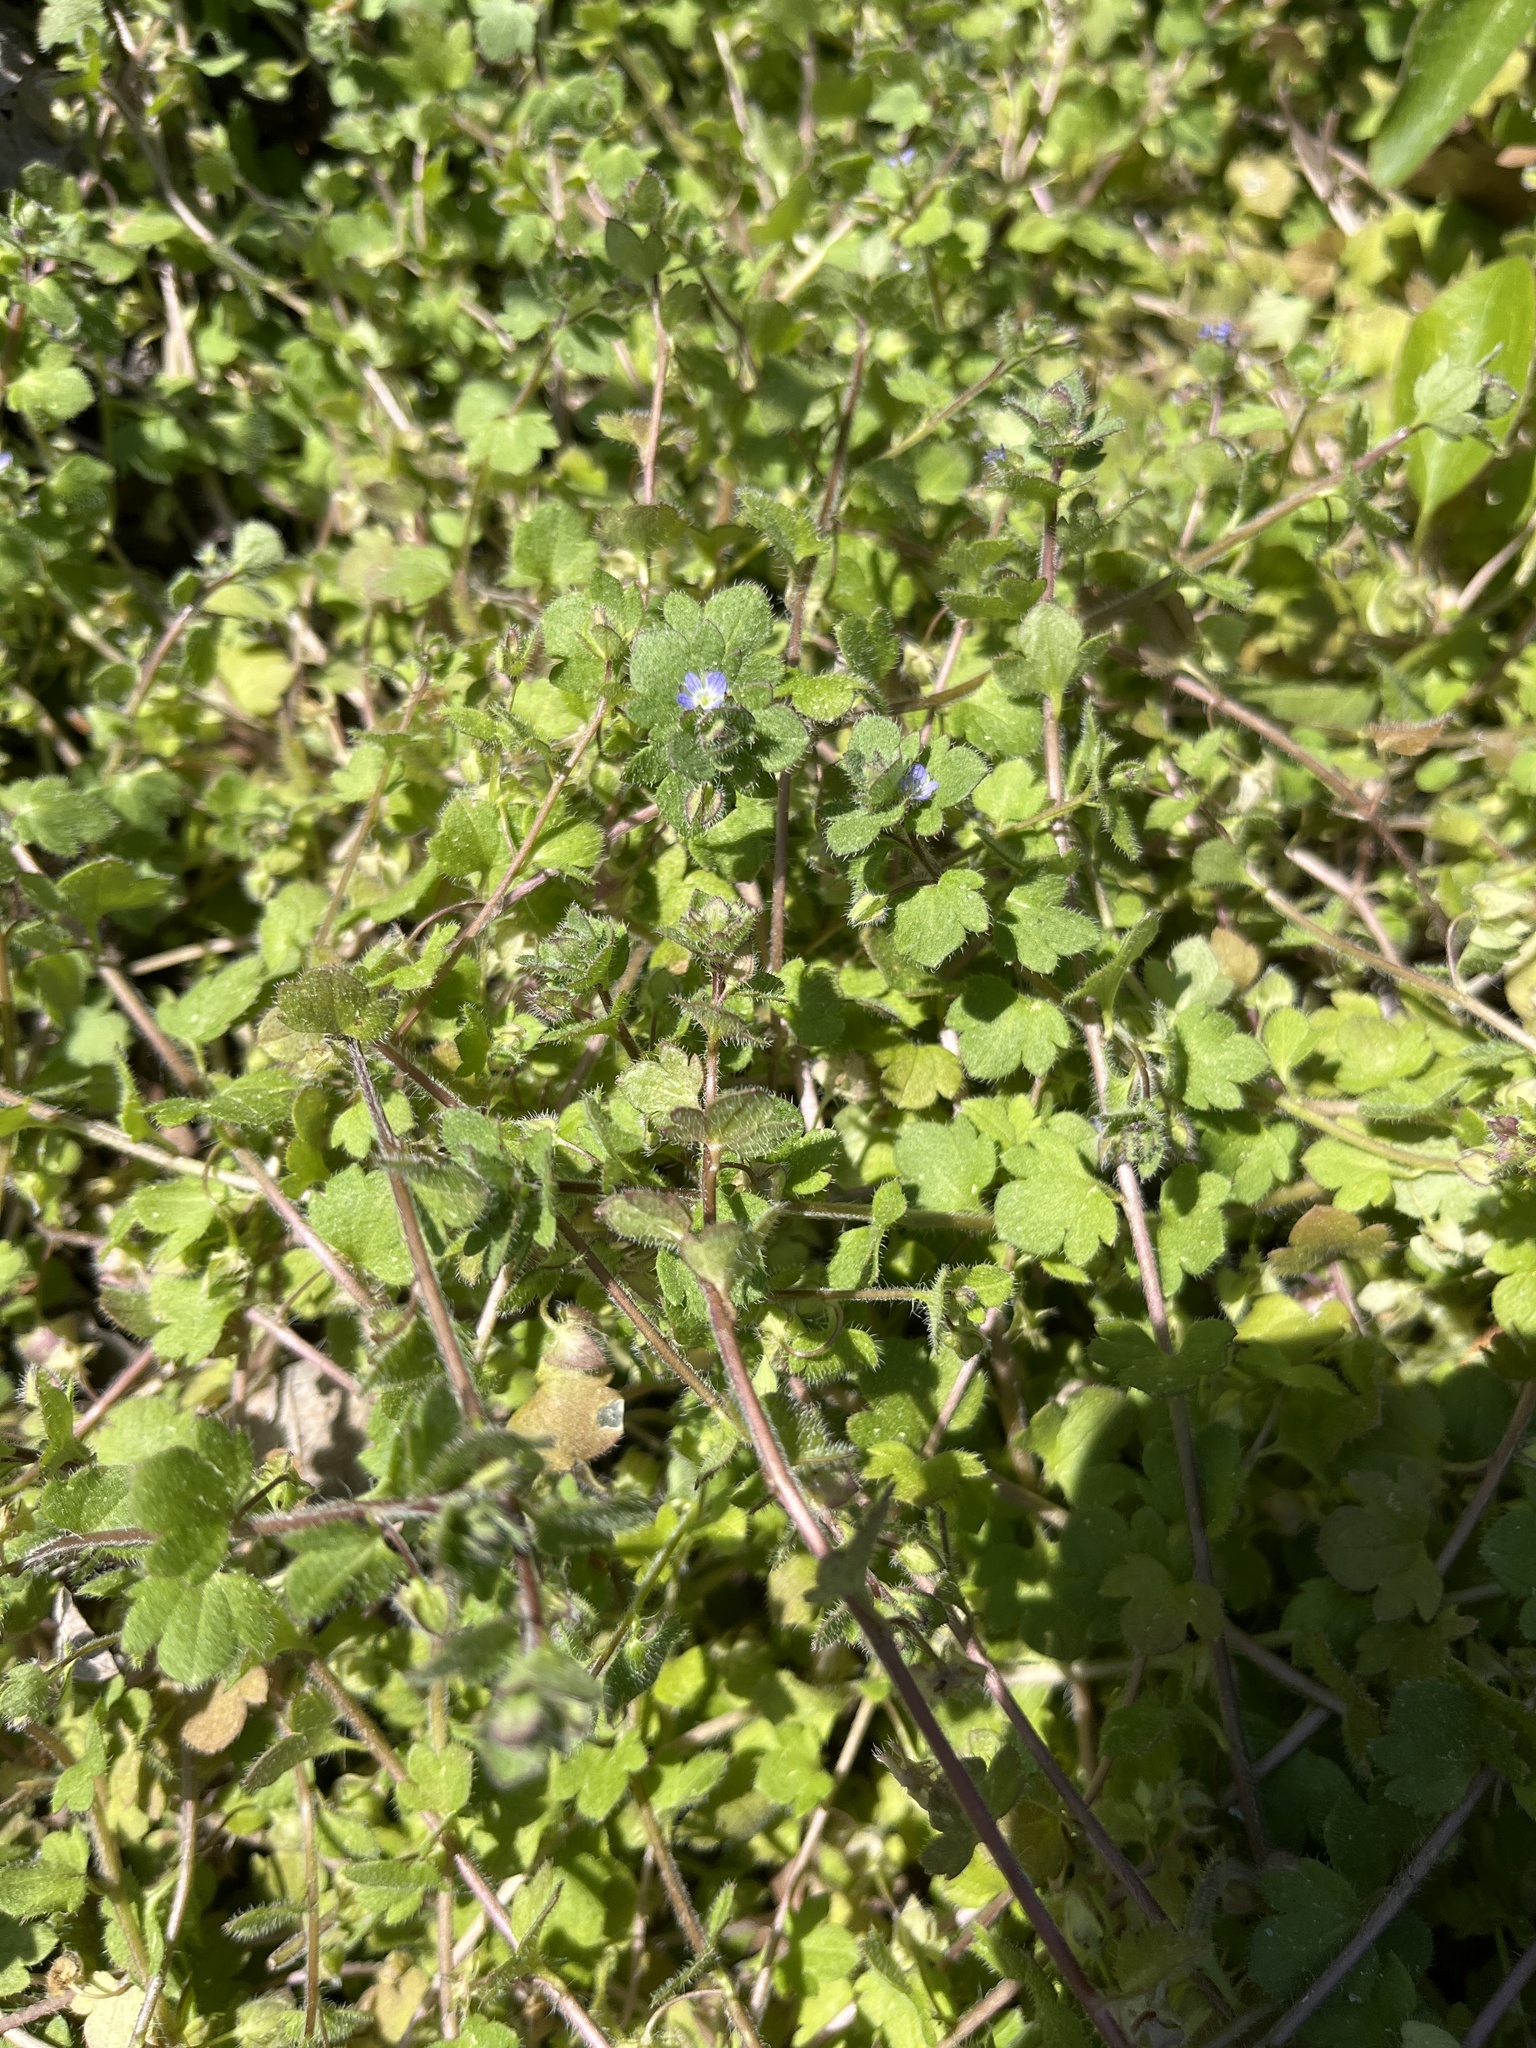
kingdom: Plantae
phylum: Tracheophyta
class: Magnoliopsida
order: Lamiales
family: Plantaginaceae
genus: Veronica
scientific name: Veronica hederifolia
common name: Ivy-leaved speedwell
